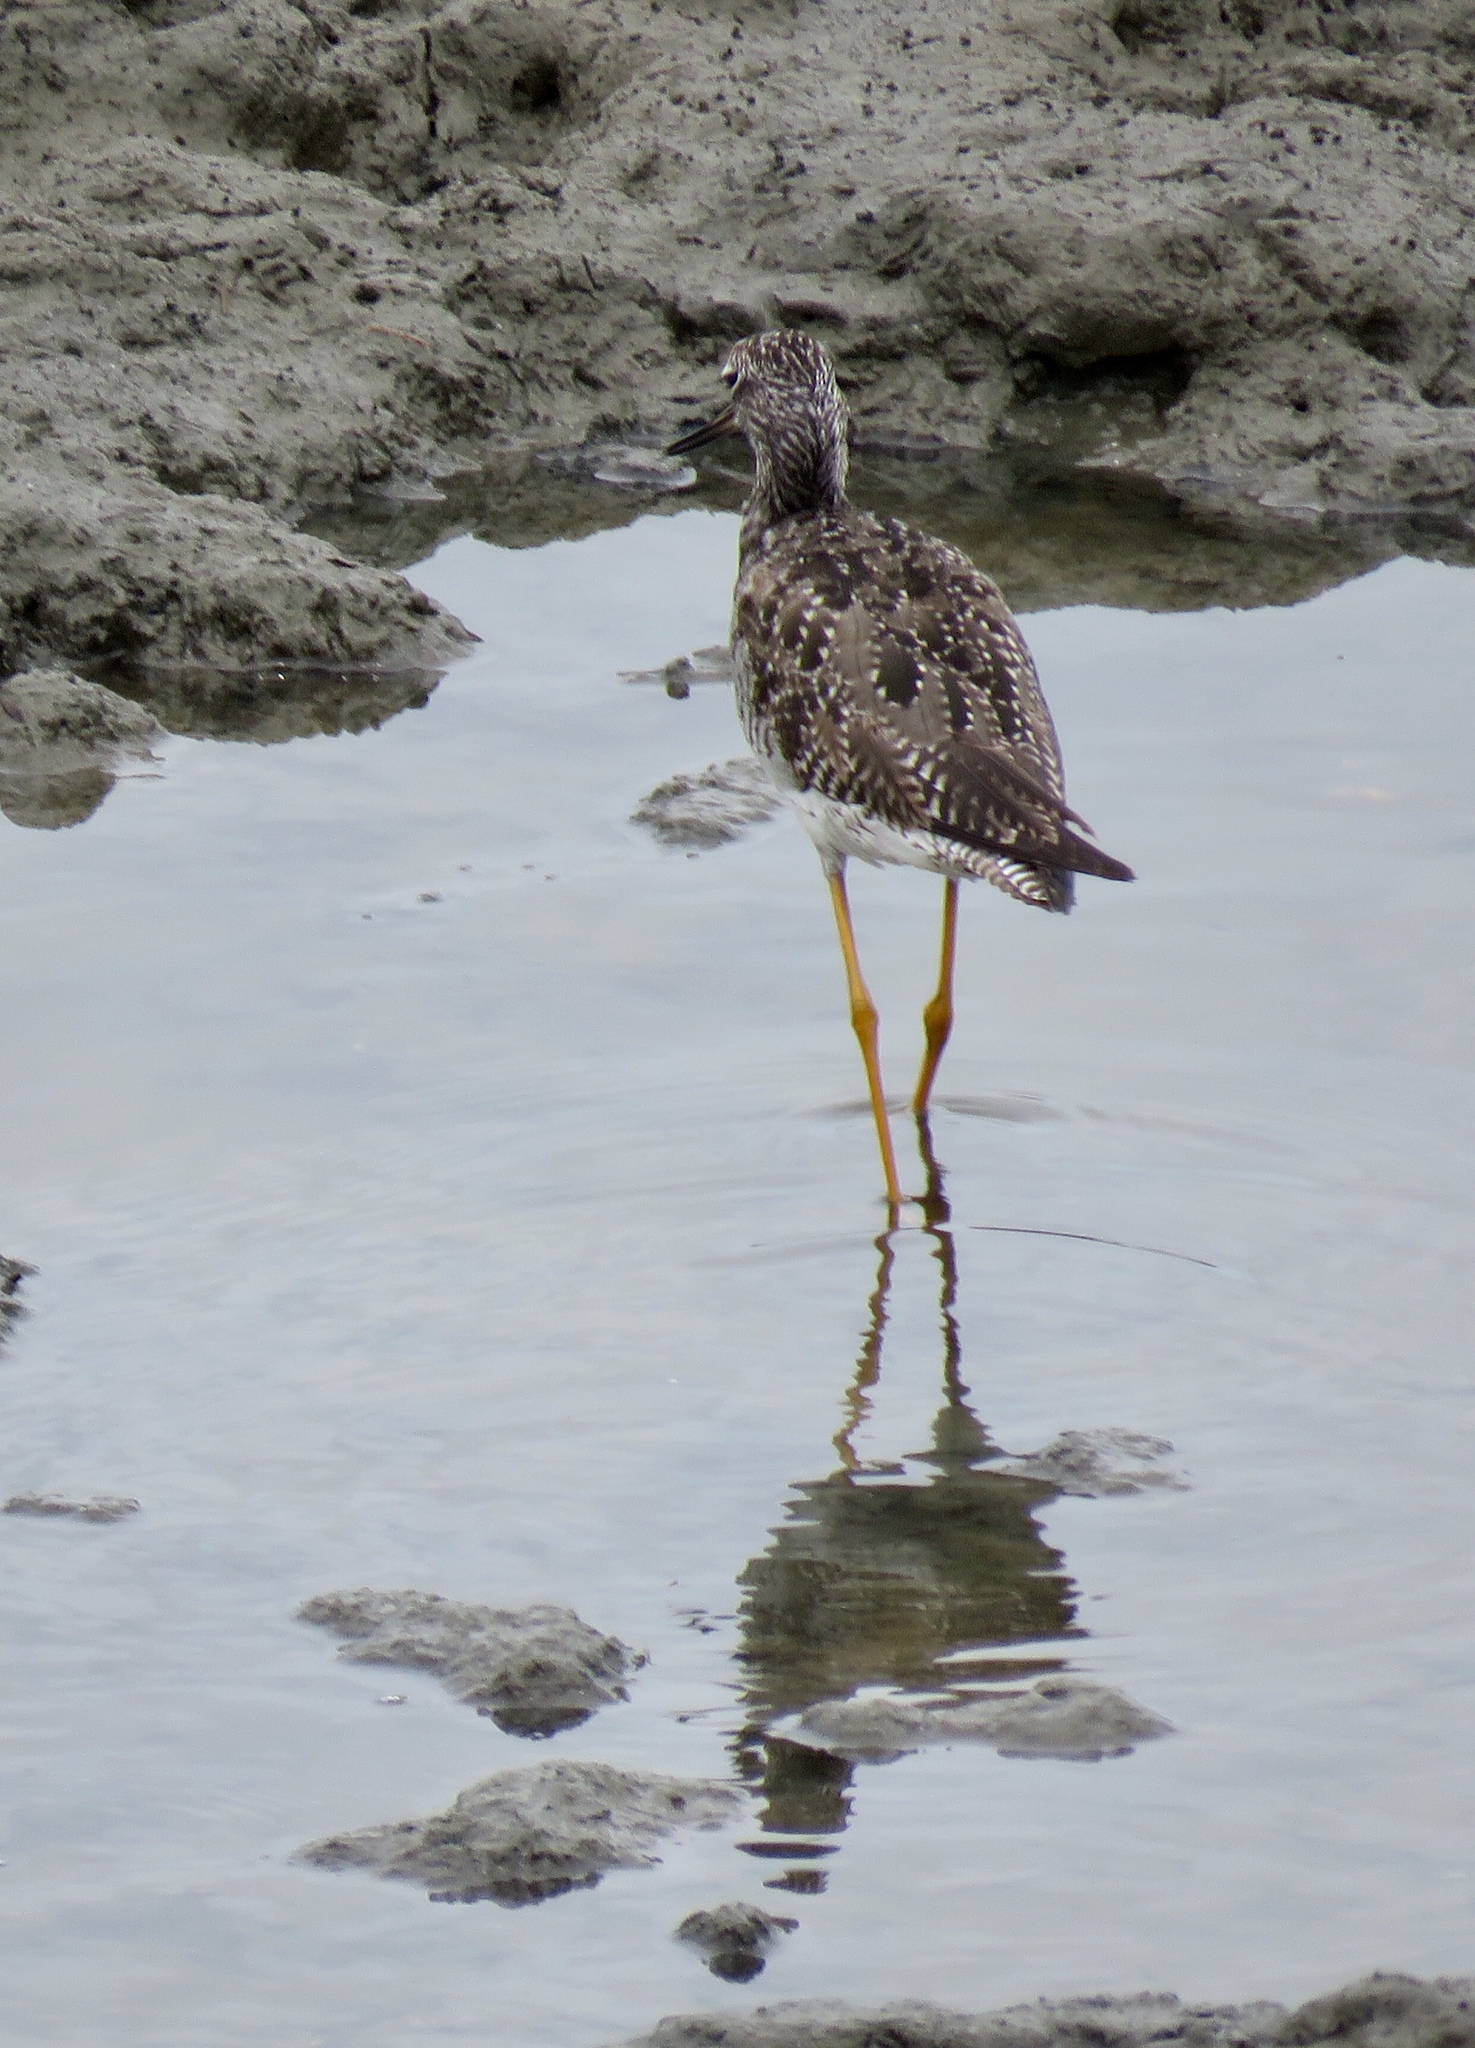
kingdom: Animalia
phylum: Chordata
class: Aves
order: Charadriiformes
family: Scolopacidae
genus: Tringa
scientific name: Tringa melanoleuca
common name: Greater yellowlegs
